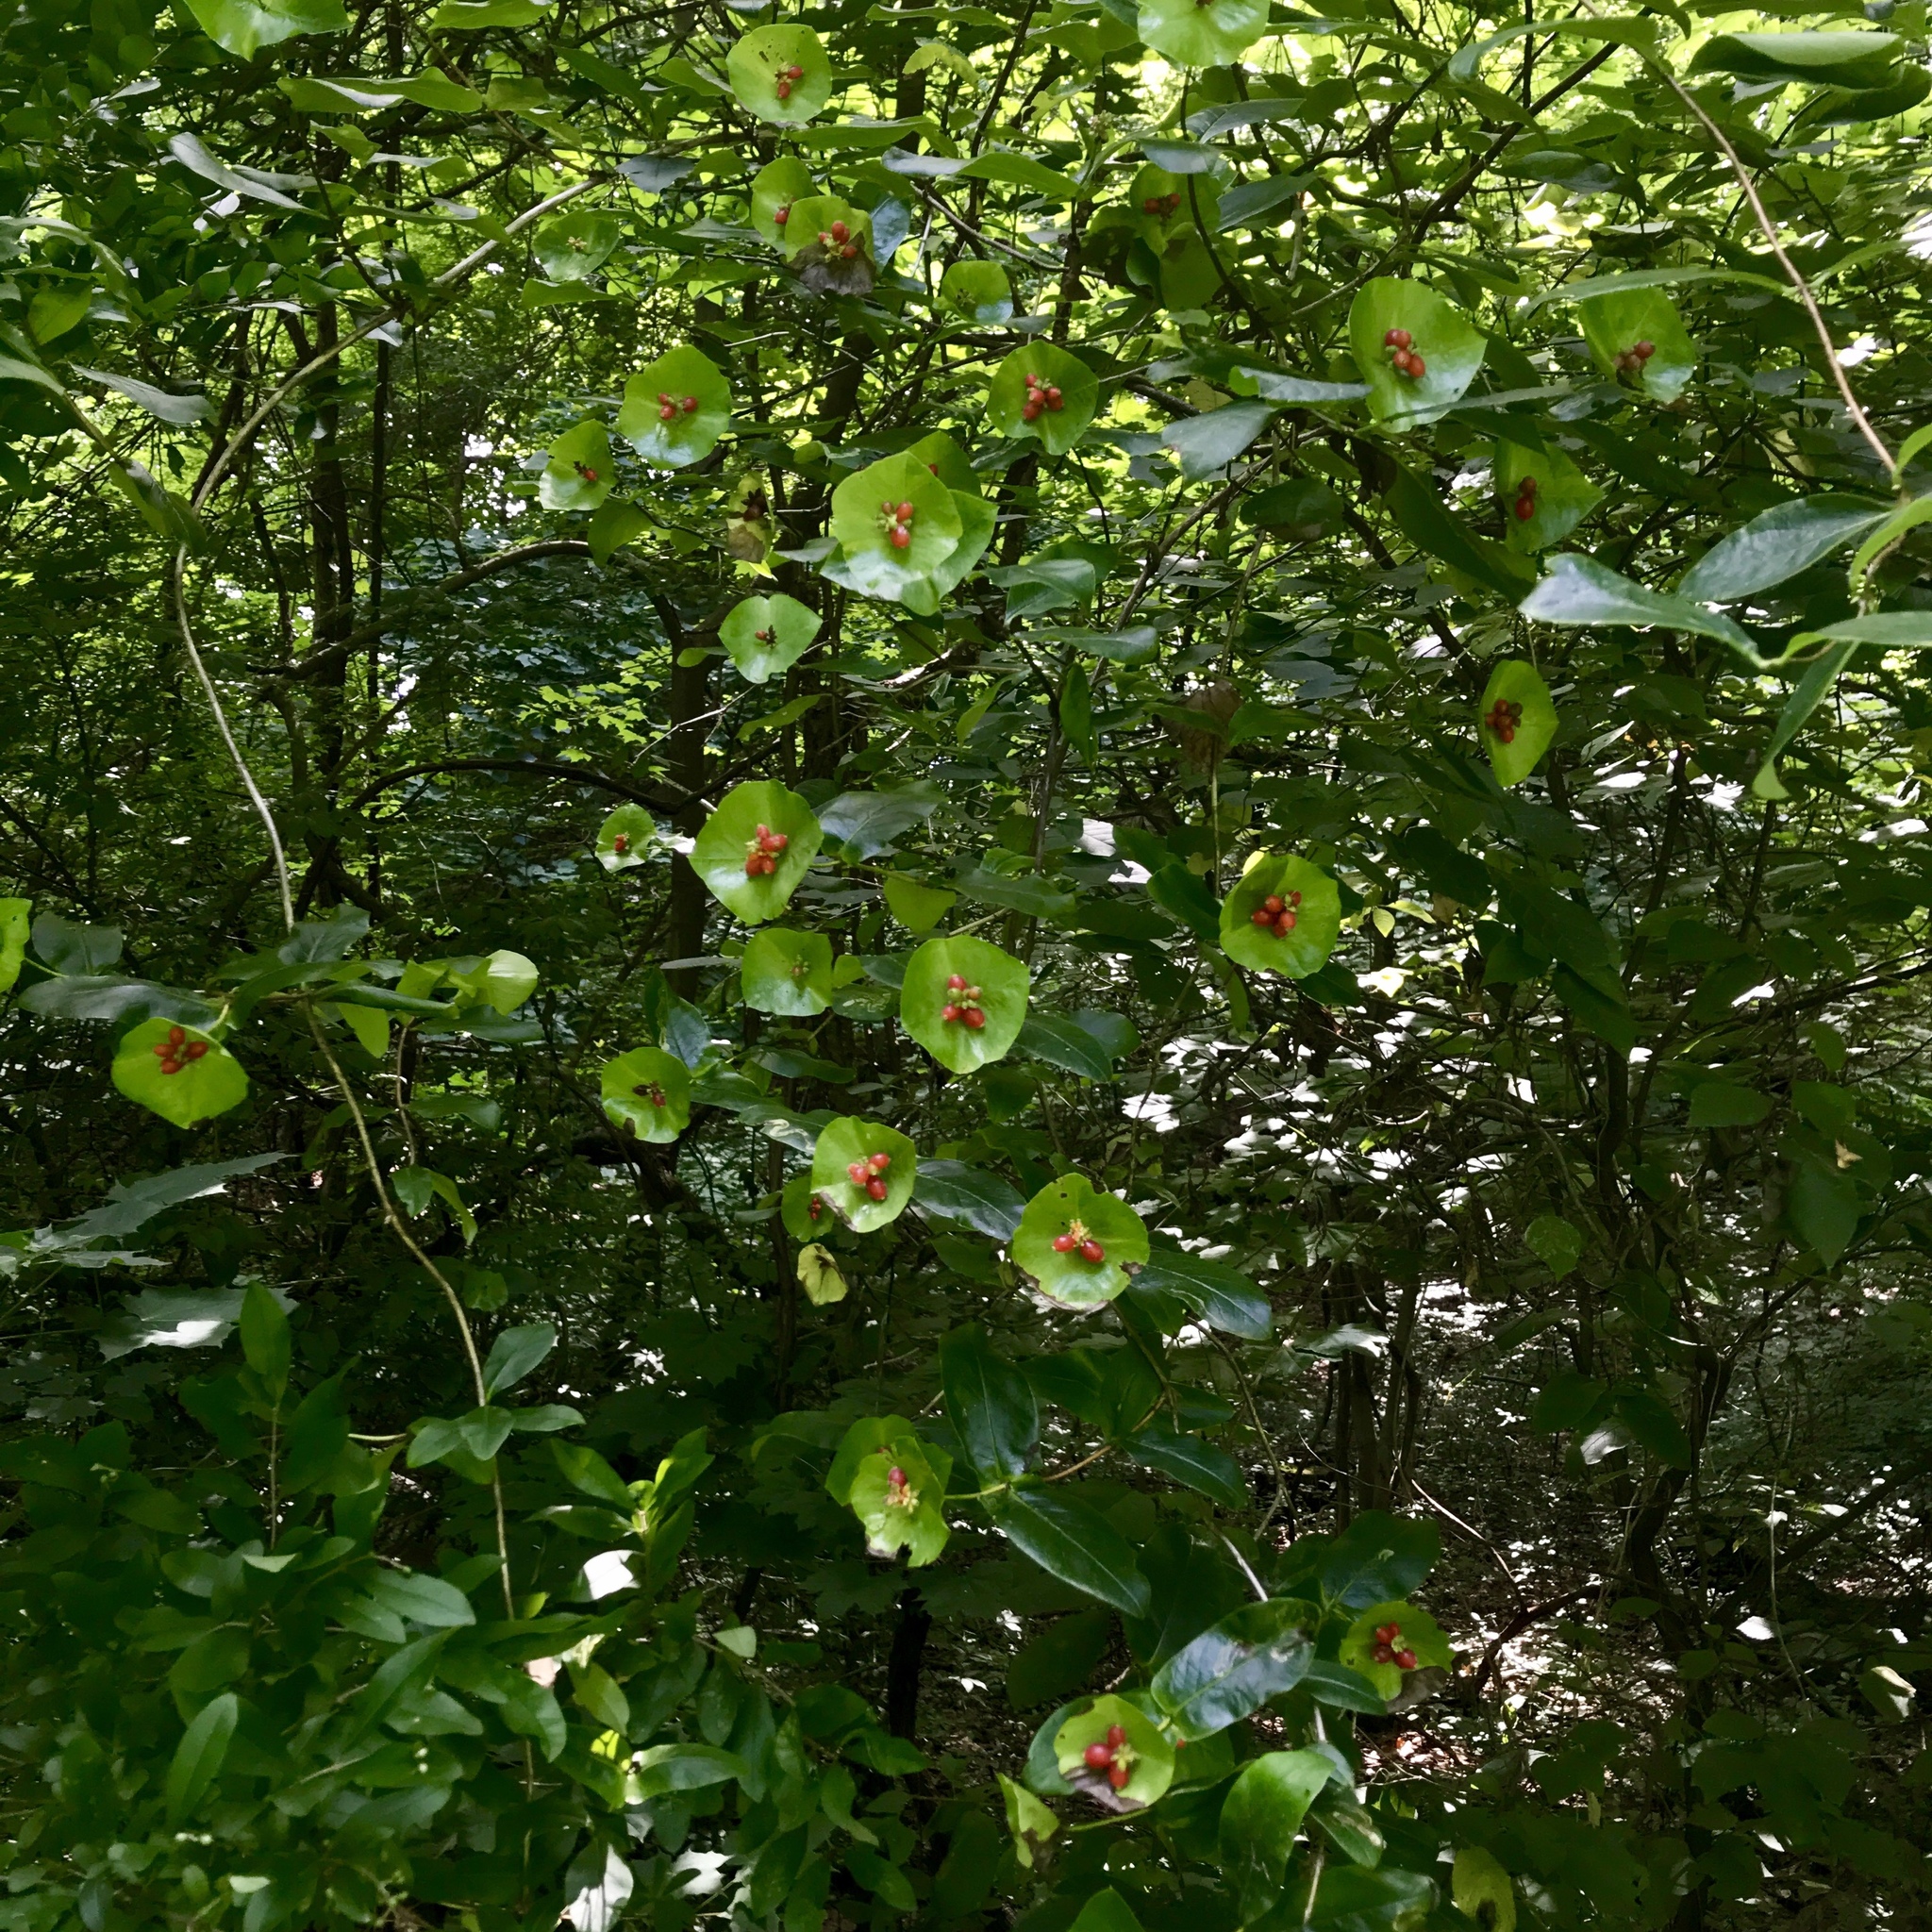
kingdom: Plantae
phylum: Tracheophyta
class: Magnoliopsida
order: Dipsacales
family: Caprifoliaceae
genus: Lonicera
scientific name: Lonicera dioica
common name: Limber honeysuckle
